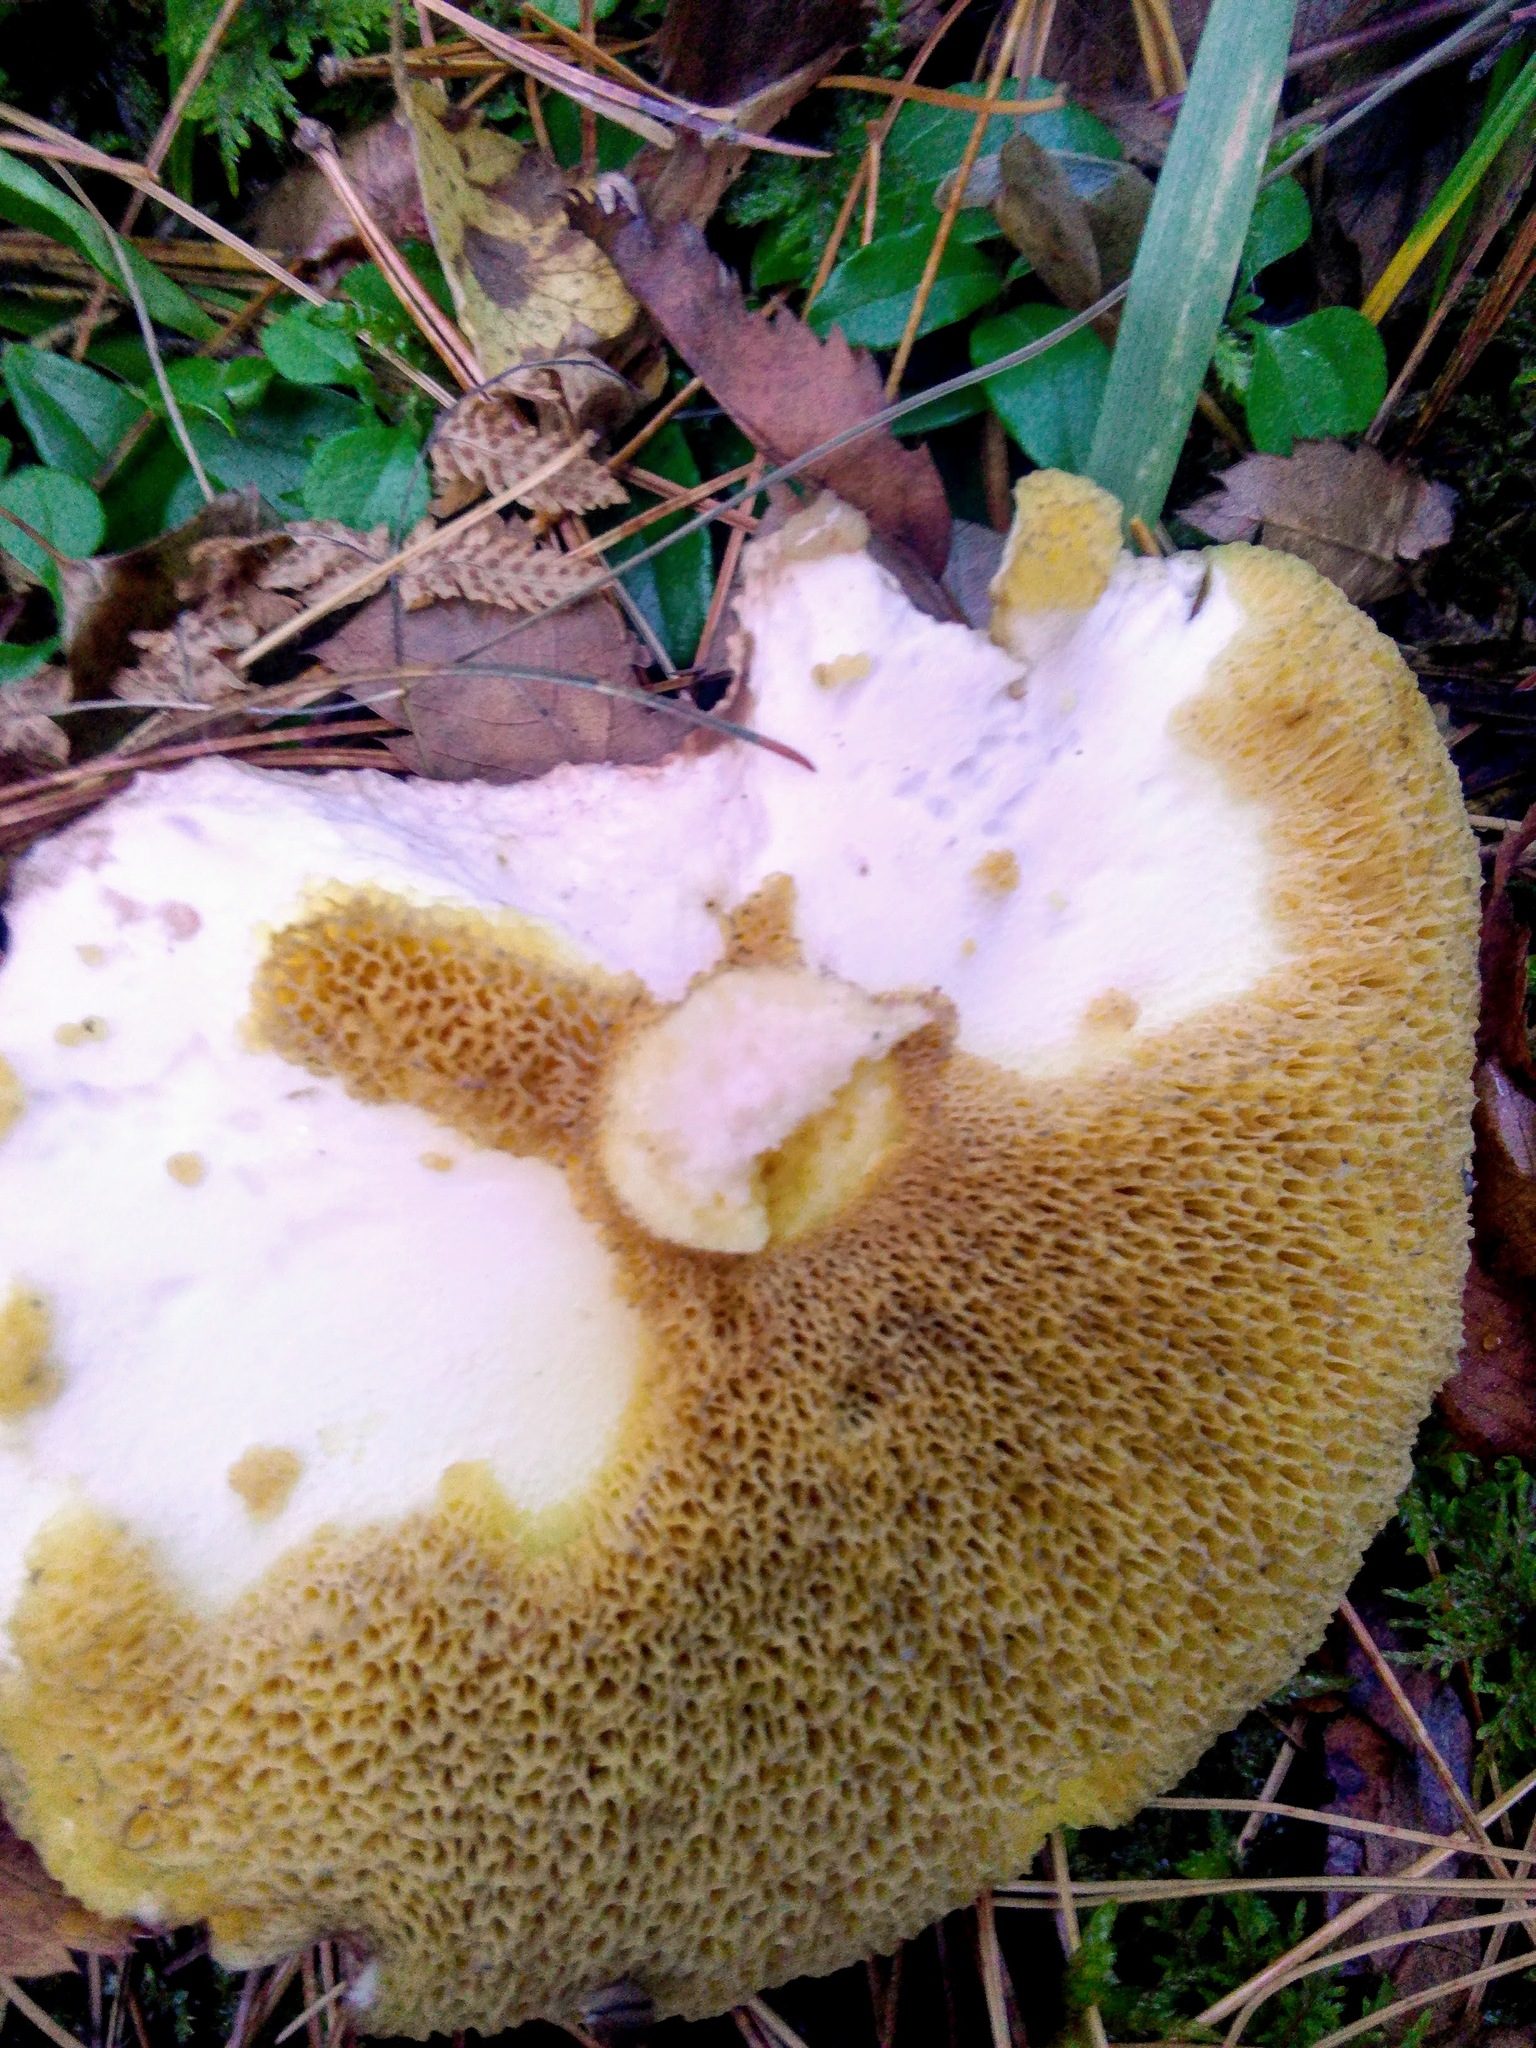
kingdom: Fungi
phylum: Basidiomycota
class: Agaricomycetes
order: Boletales
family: Suillaceae
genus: Suillus
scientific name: Suillus placidus
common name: Slippery white bolete
